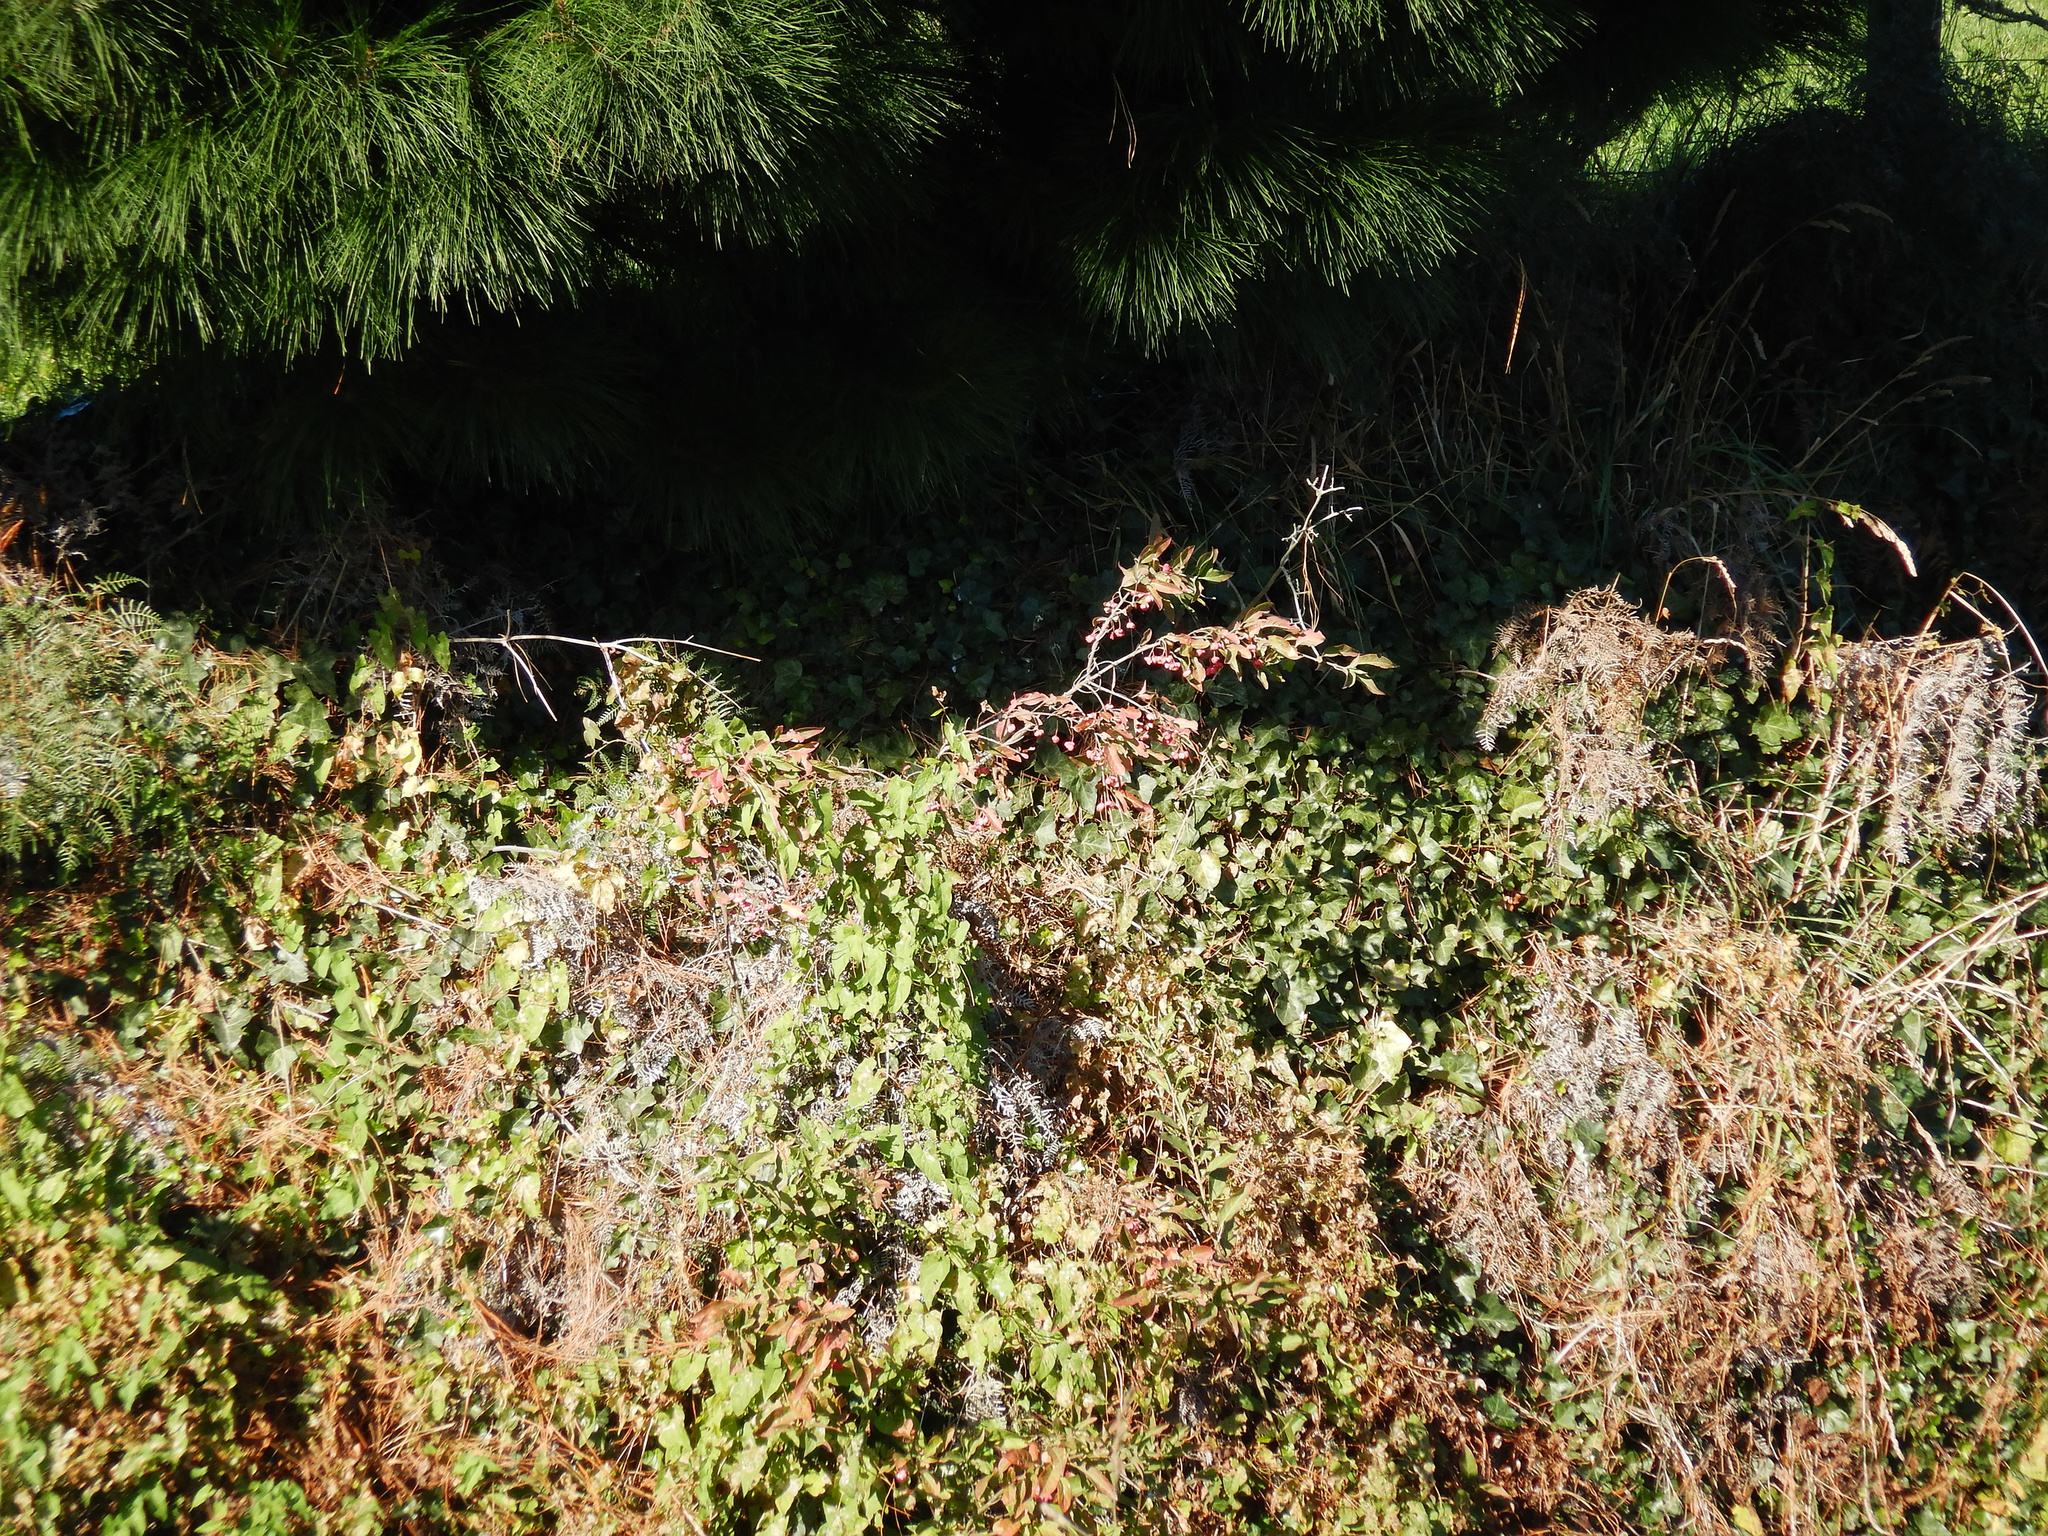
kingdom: Plantae
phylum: Tracheophyta
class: Magnoliopsida
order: Celastrales
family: Celastraceae
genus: Euonymus
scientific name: Euonymus europaeus
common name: Spindle
